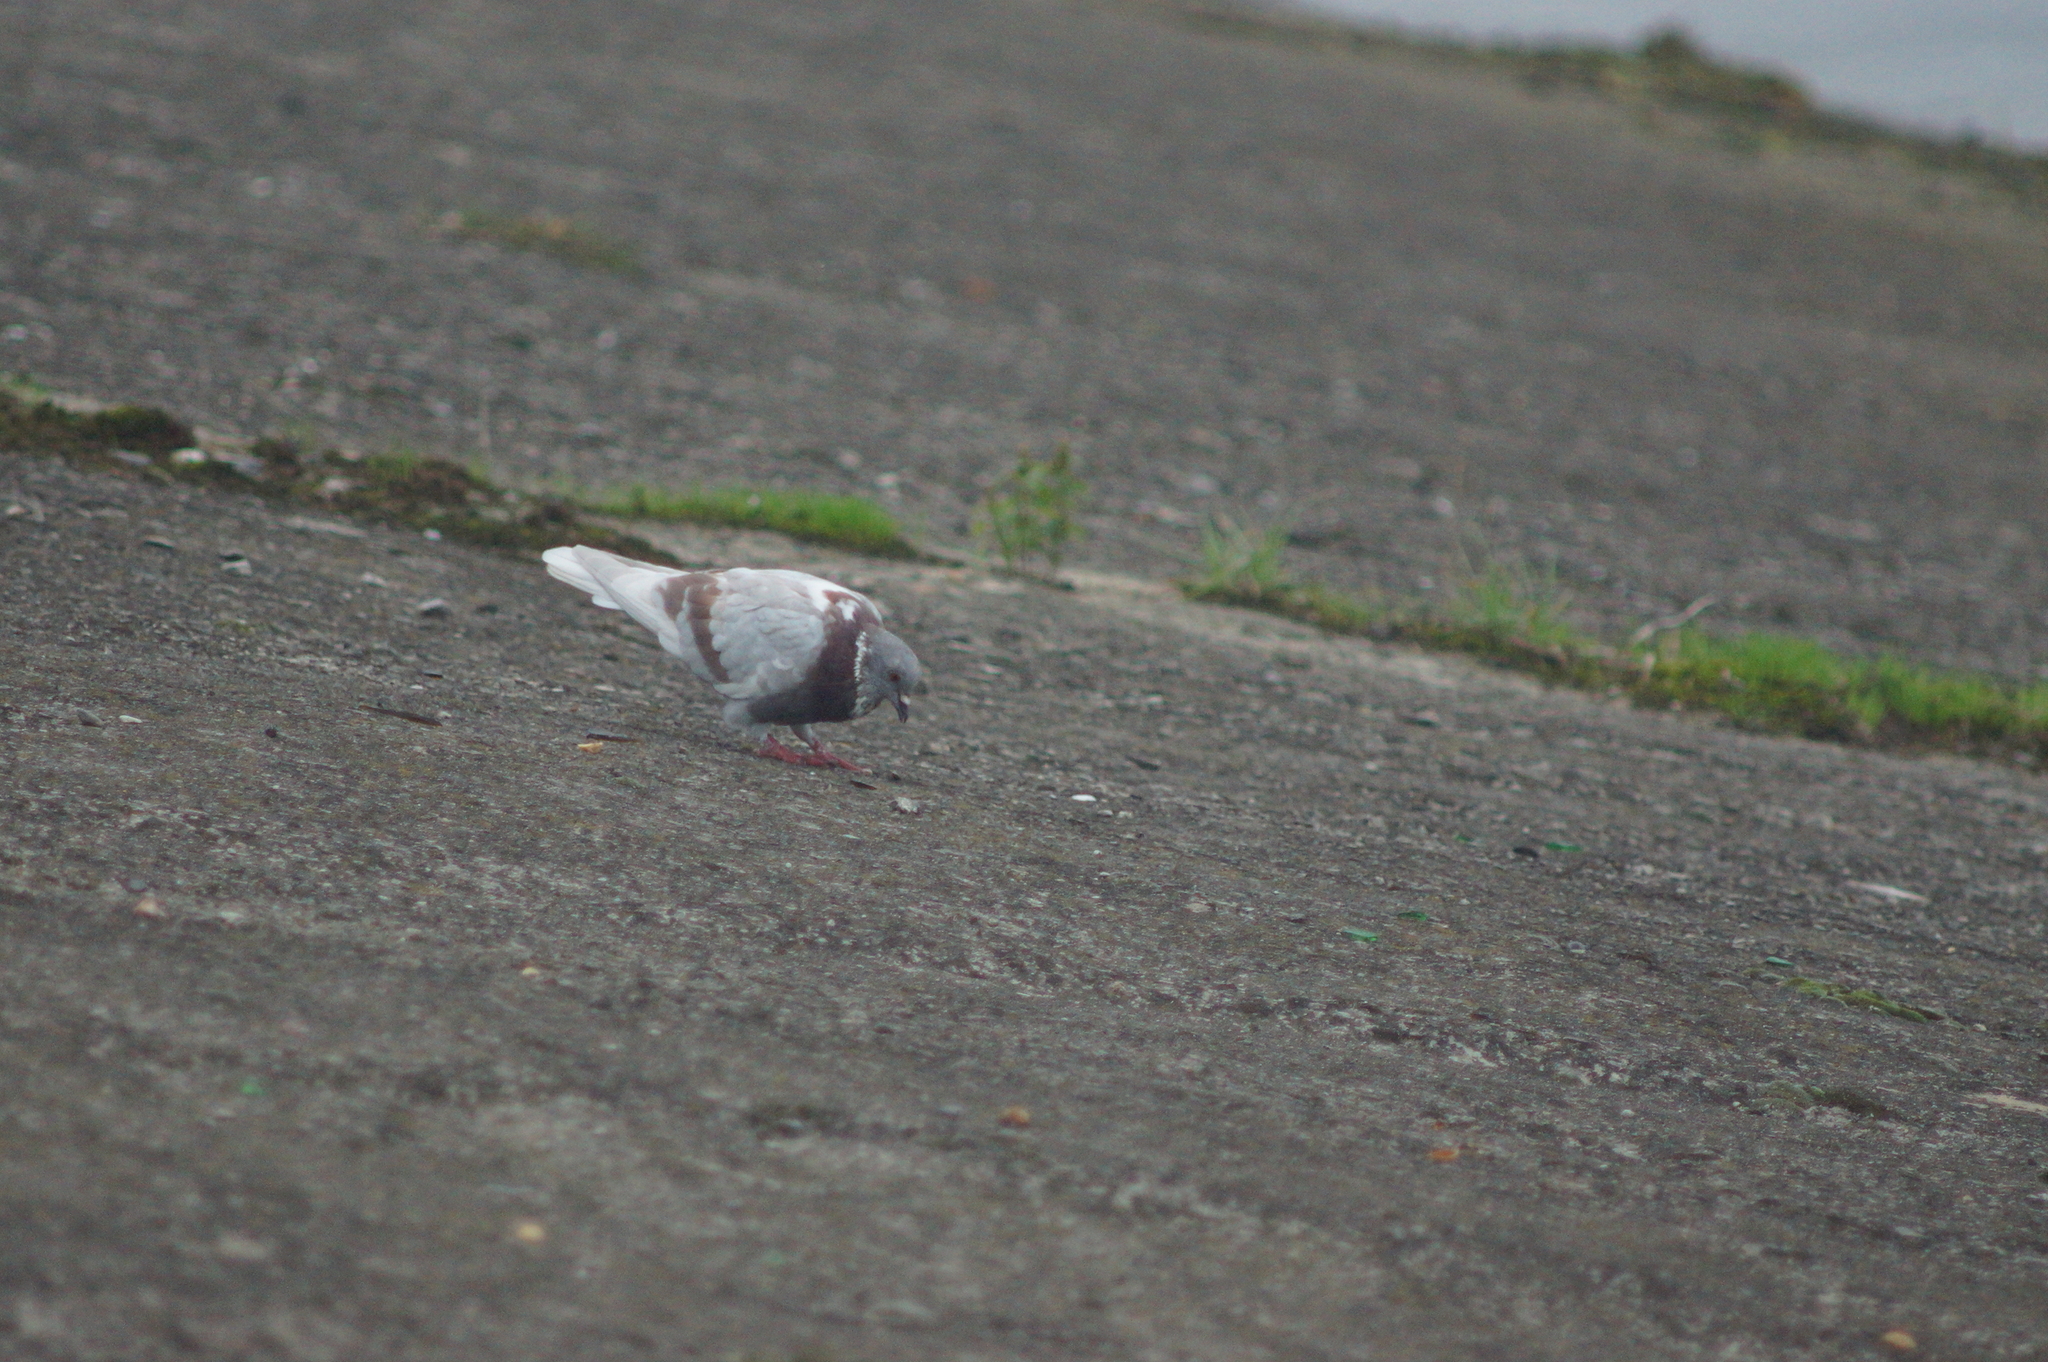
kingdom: Animalia
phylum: Chordata
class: Aves
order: Columbiformes
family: Columbidae
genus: Columba
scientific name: Columba livia
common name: Rock pigeon
